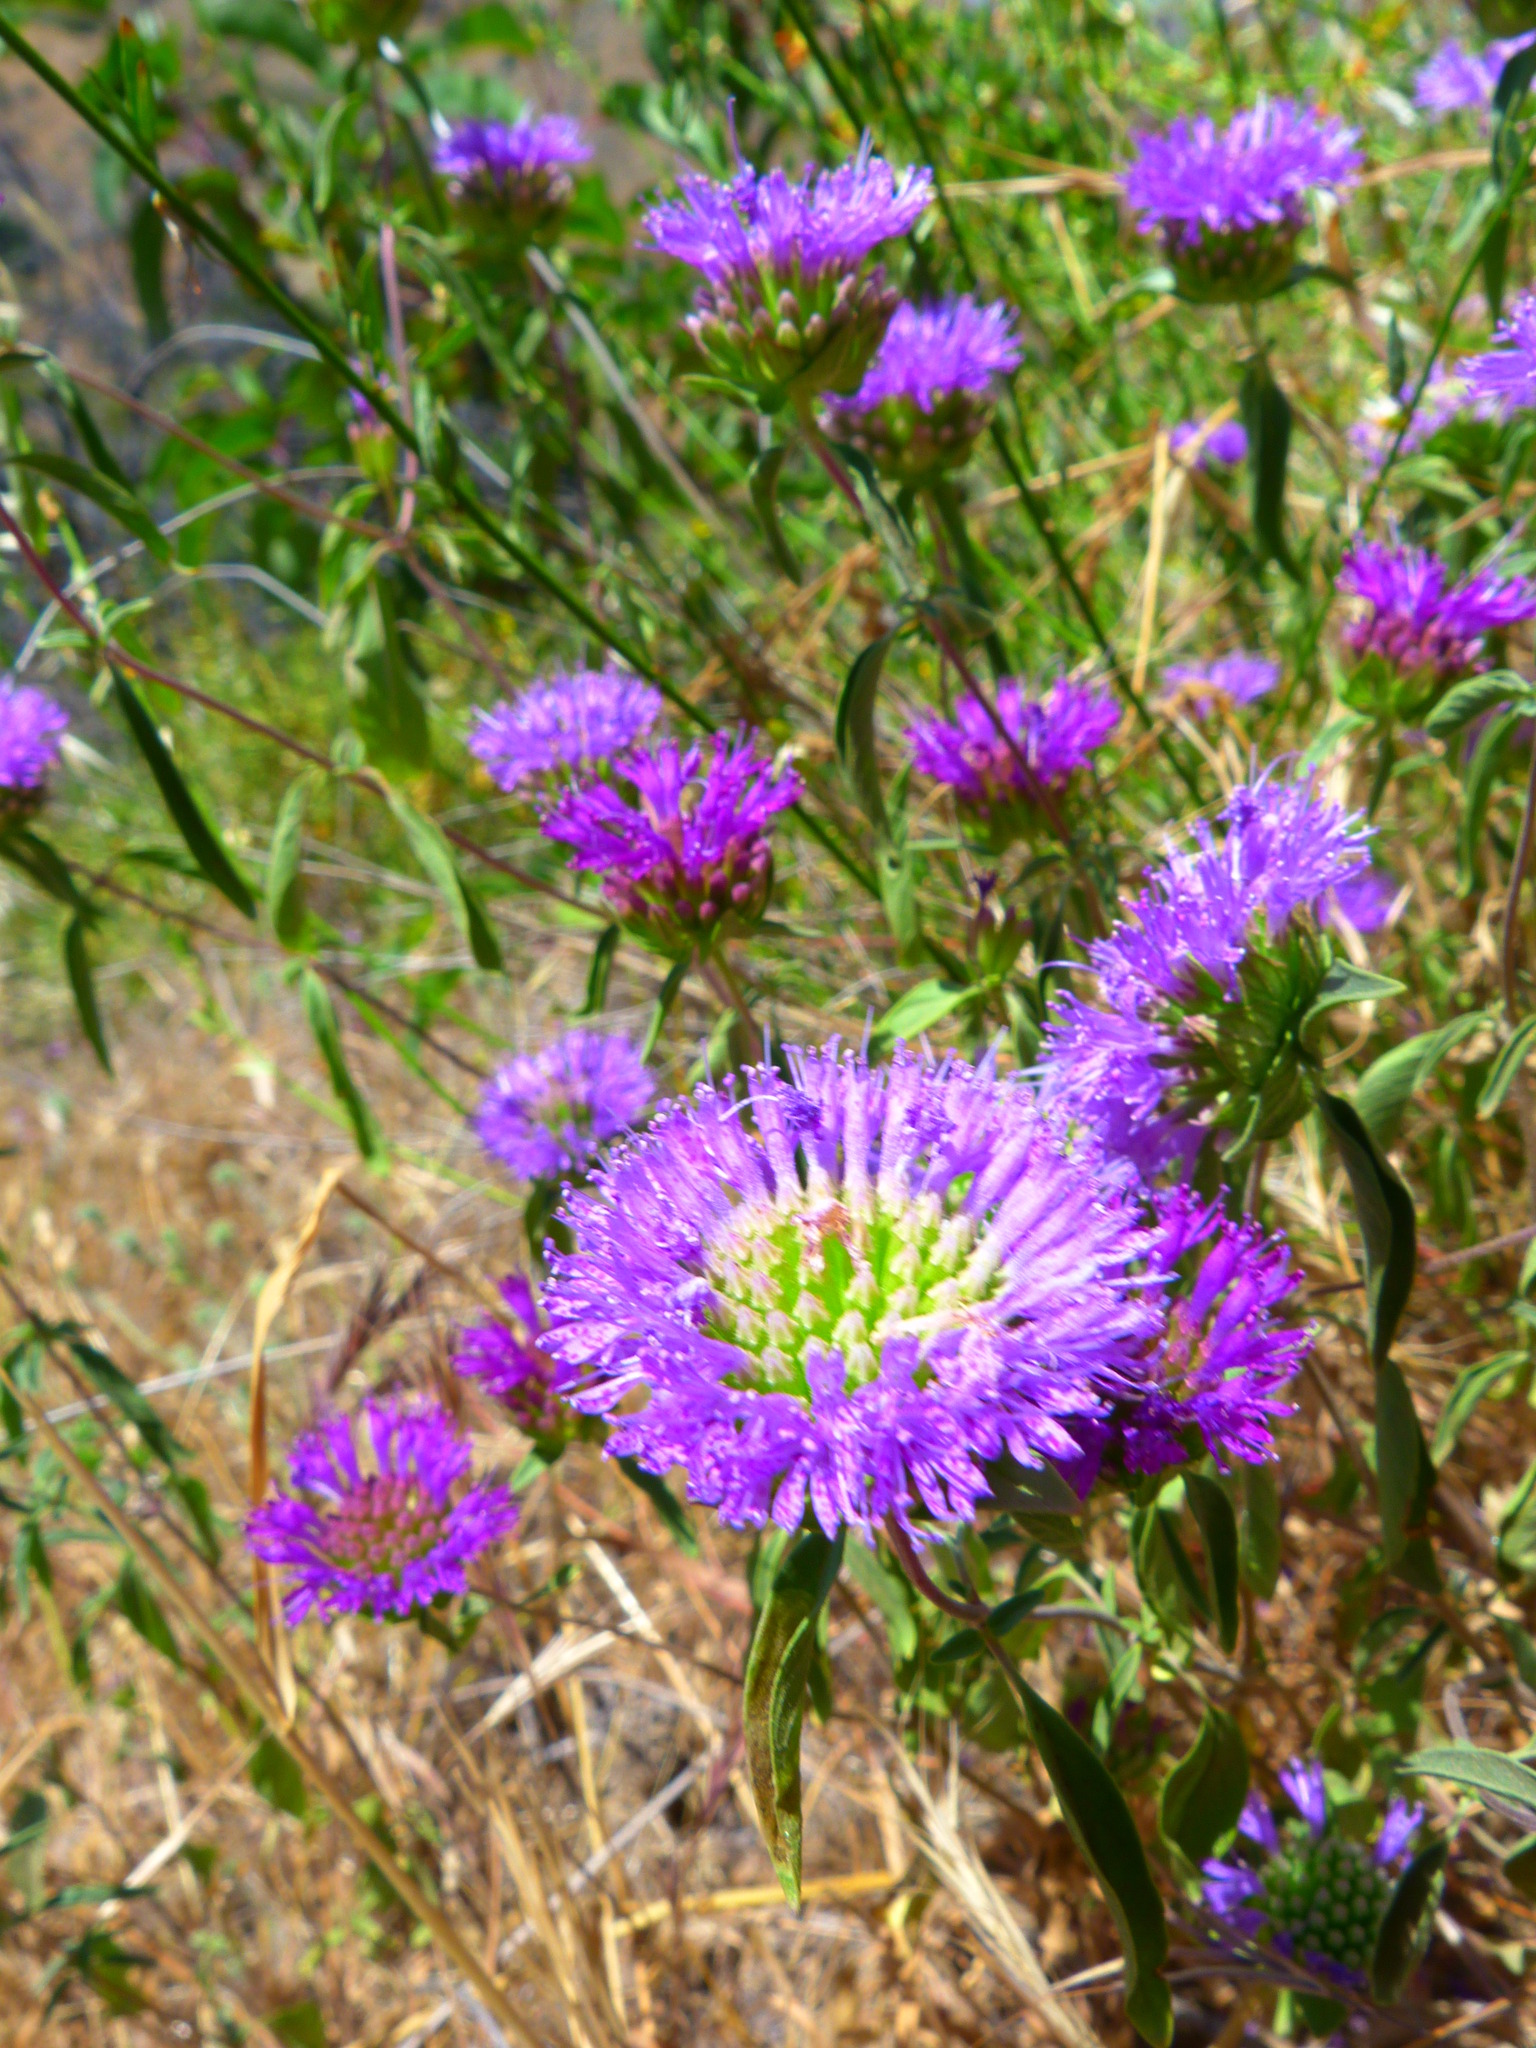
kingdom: Plantae
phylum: Tracheophyta
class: Magnoliopsida
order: Lamiales
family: Lamiaceae
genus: Monardella
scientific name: Monardella breweri
